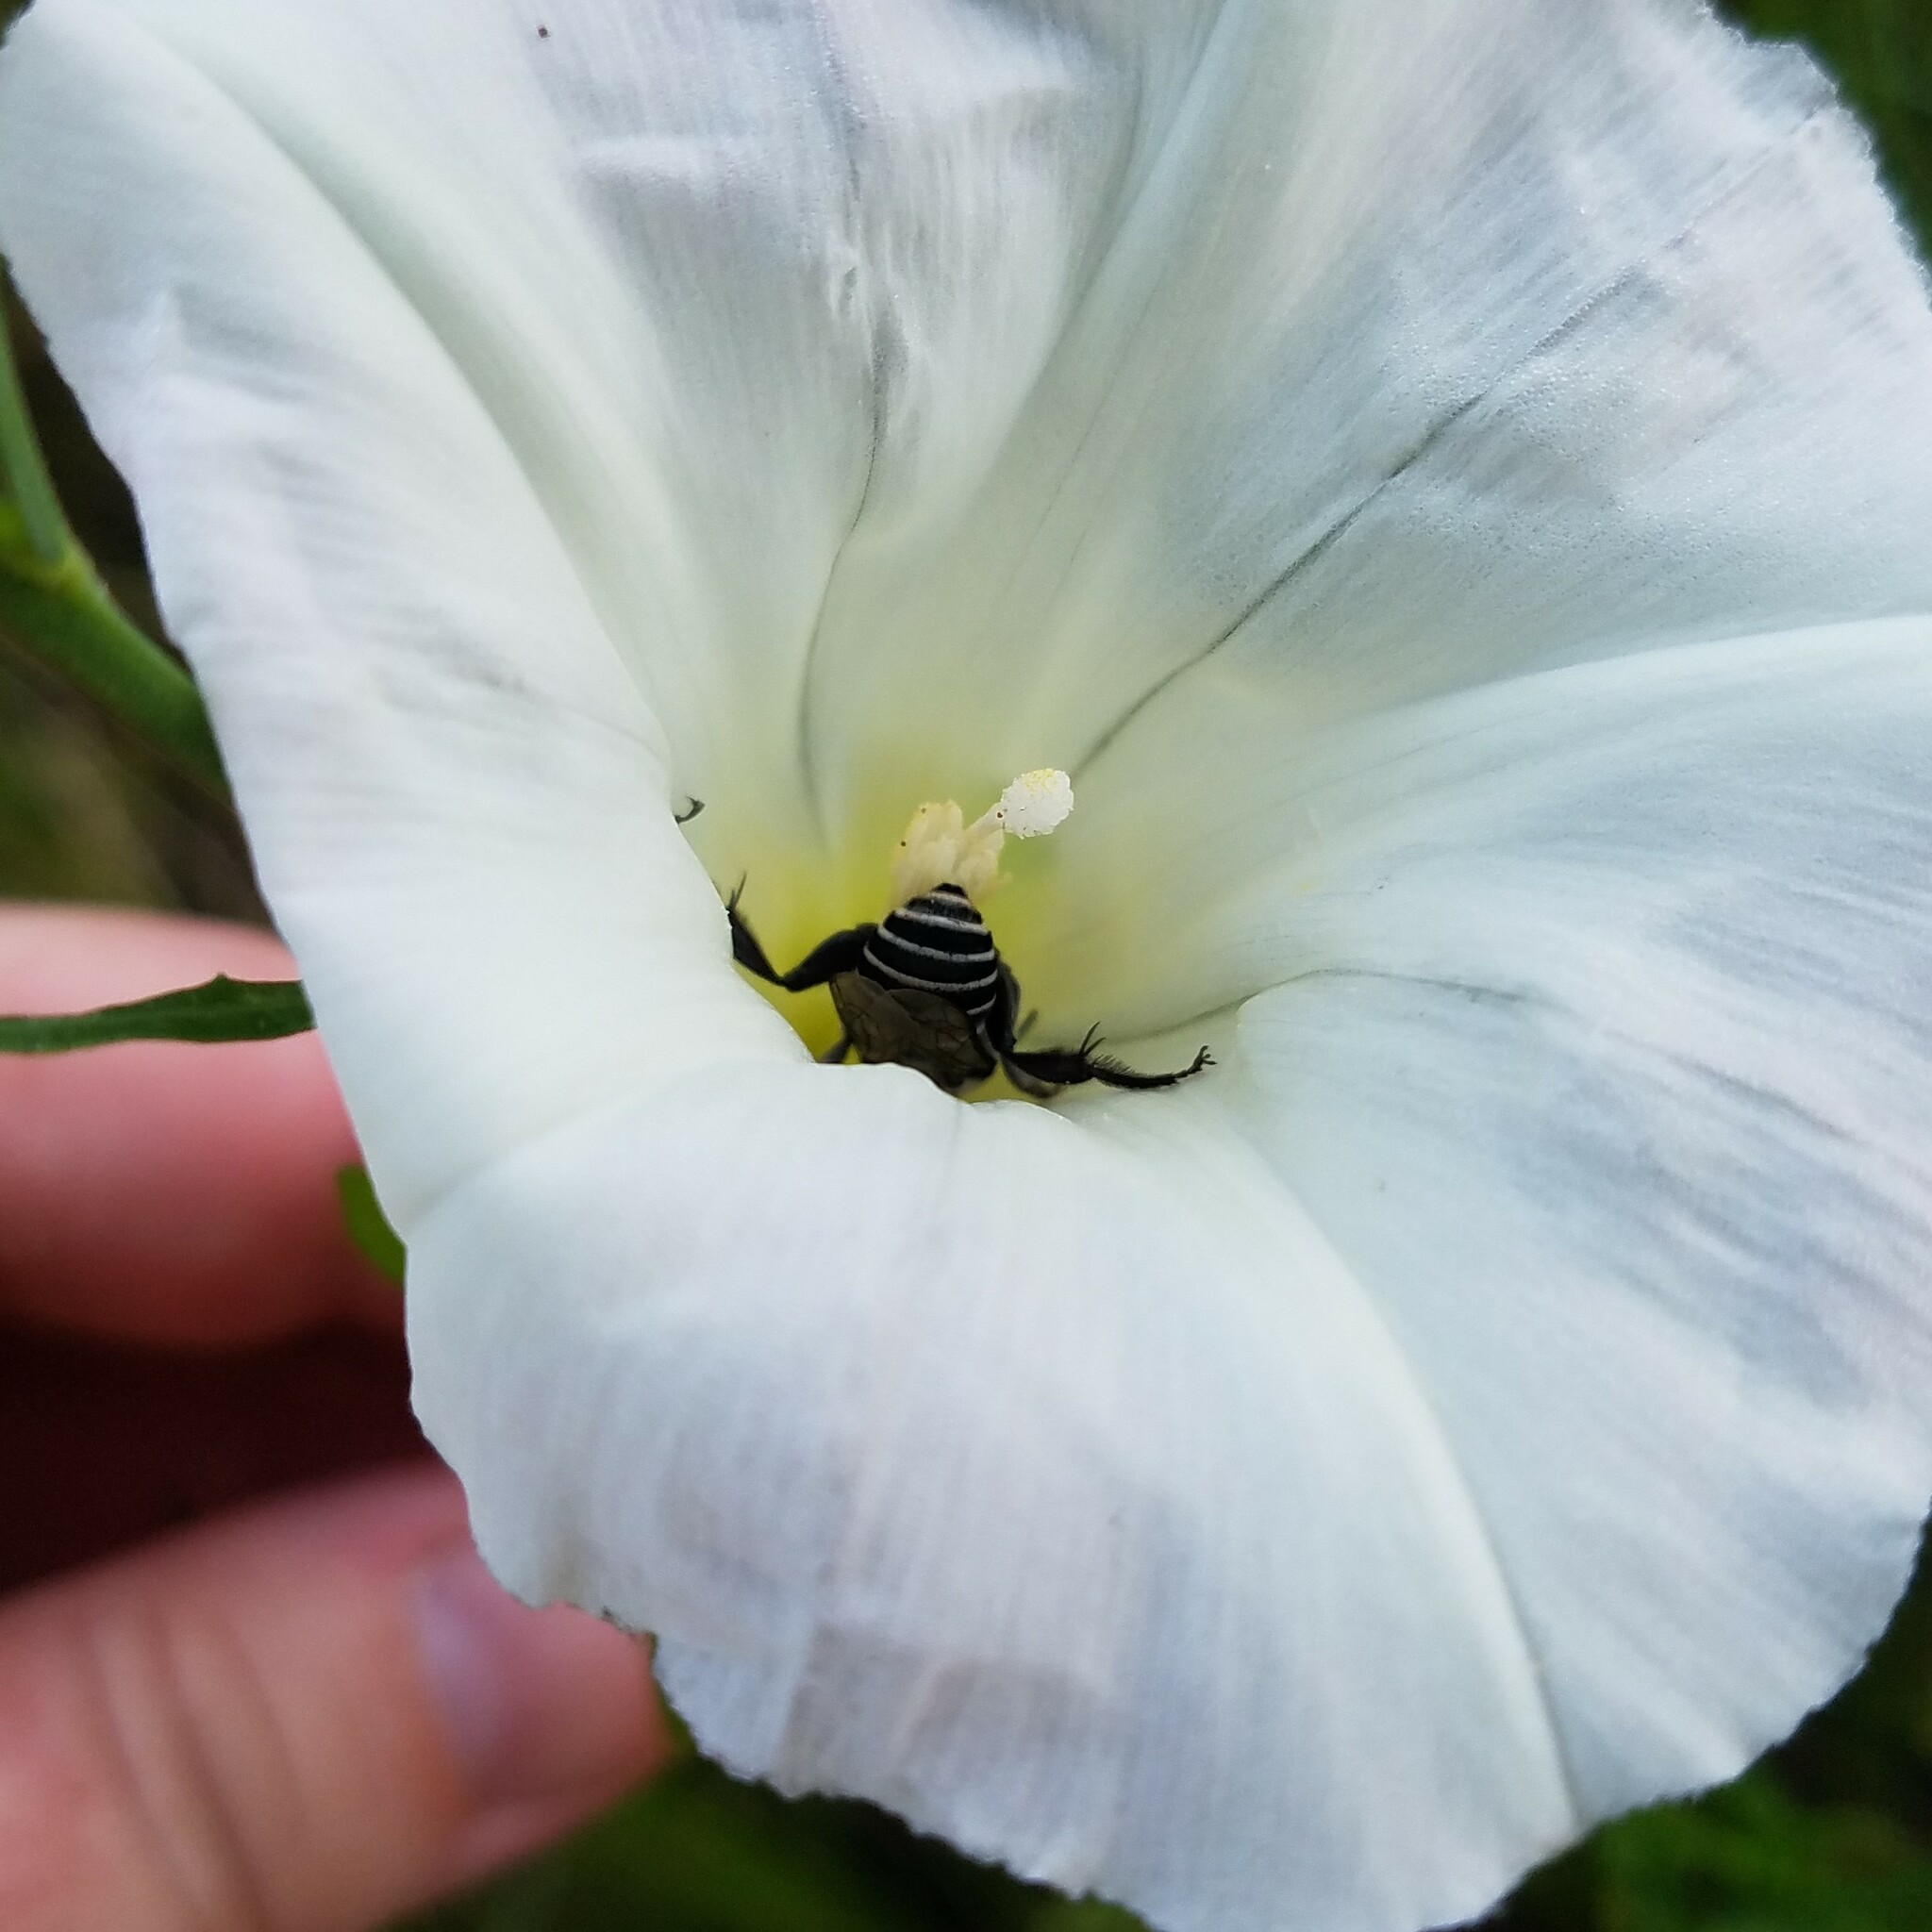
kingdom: Animalia
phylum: Arthropoda
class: Insecta
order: Hymenoptera
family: Apidae
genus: Melitoma
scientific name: Melitoma taurea
